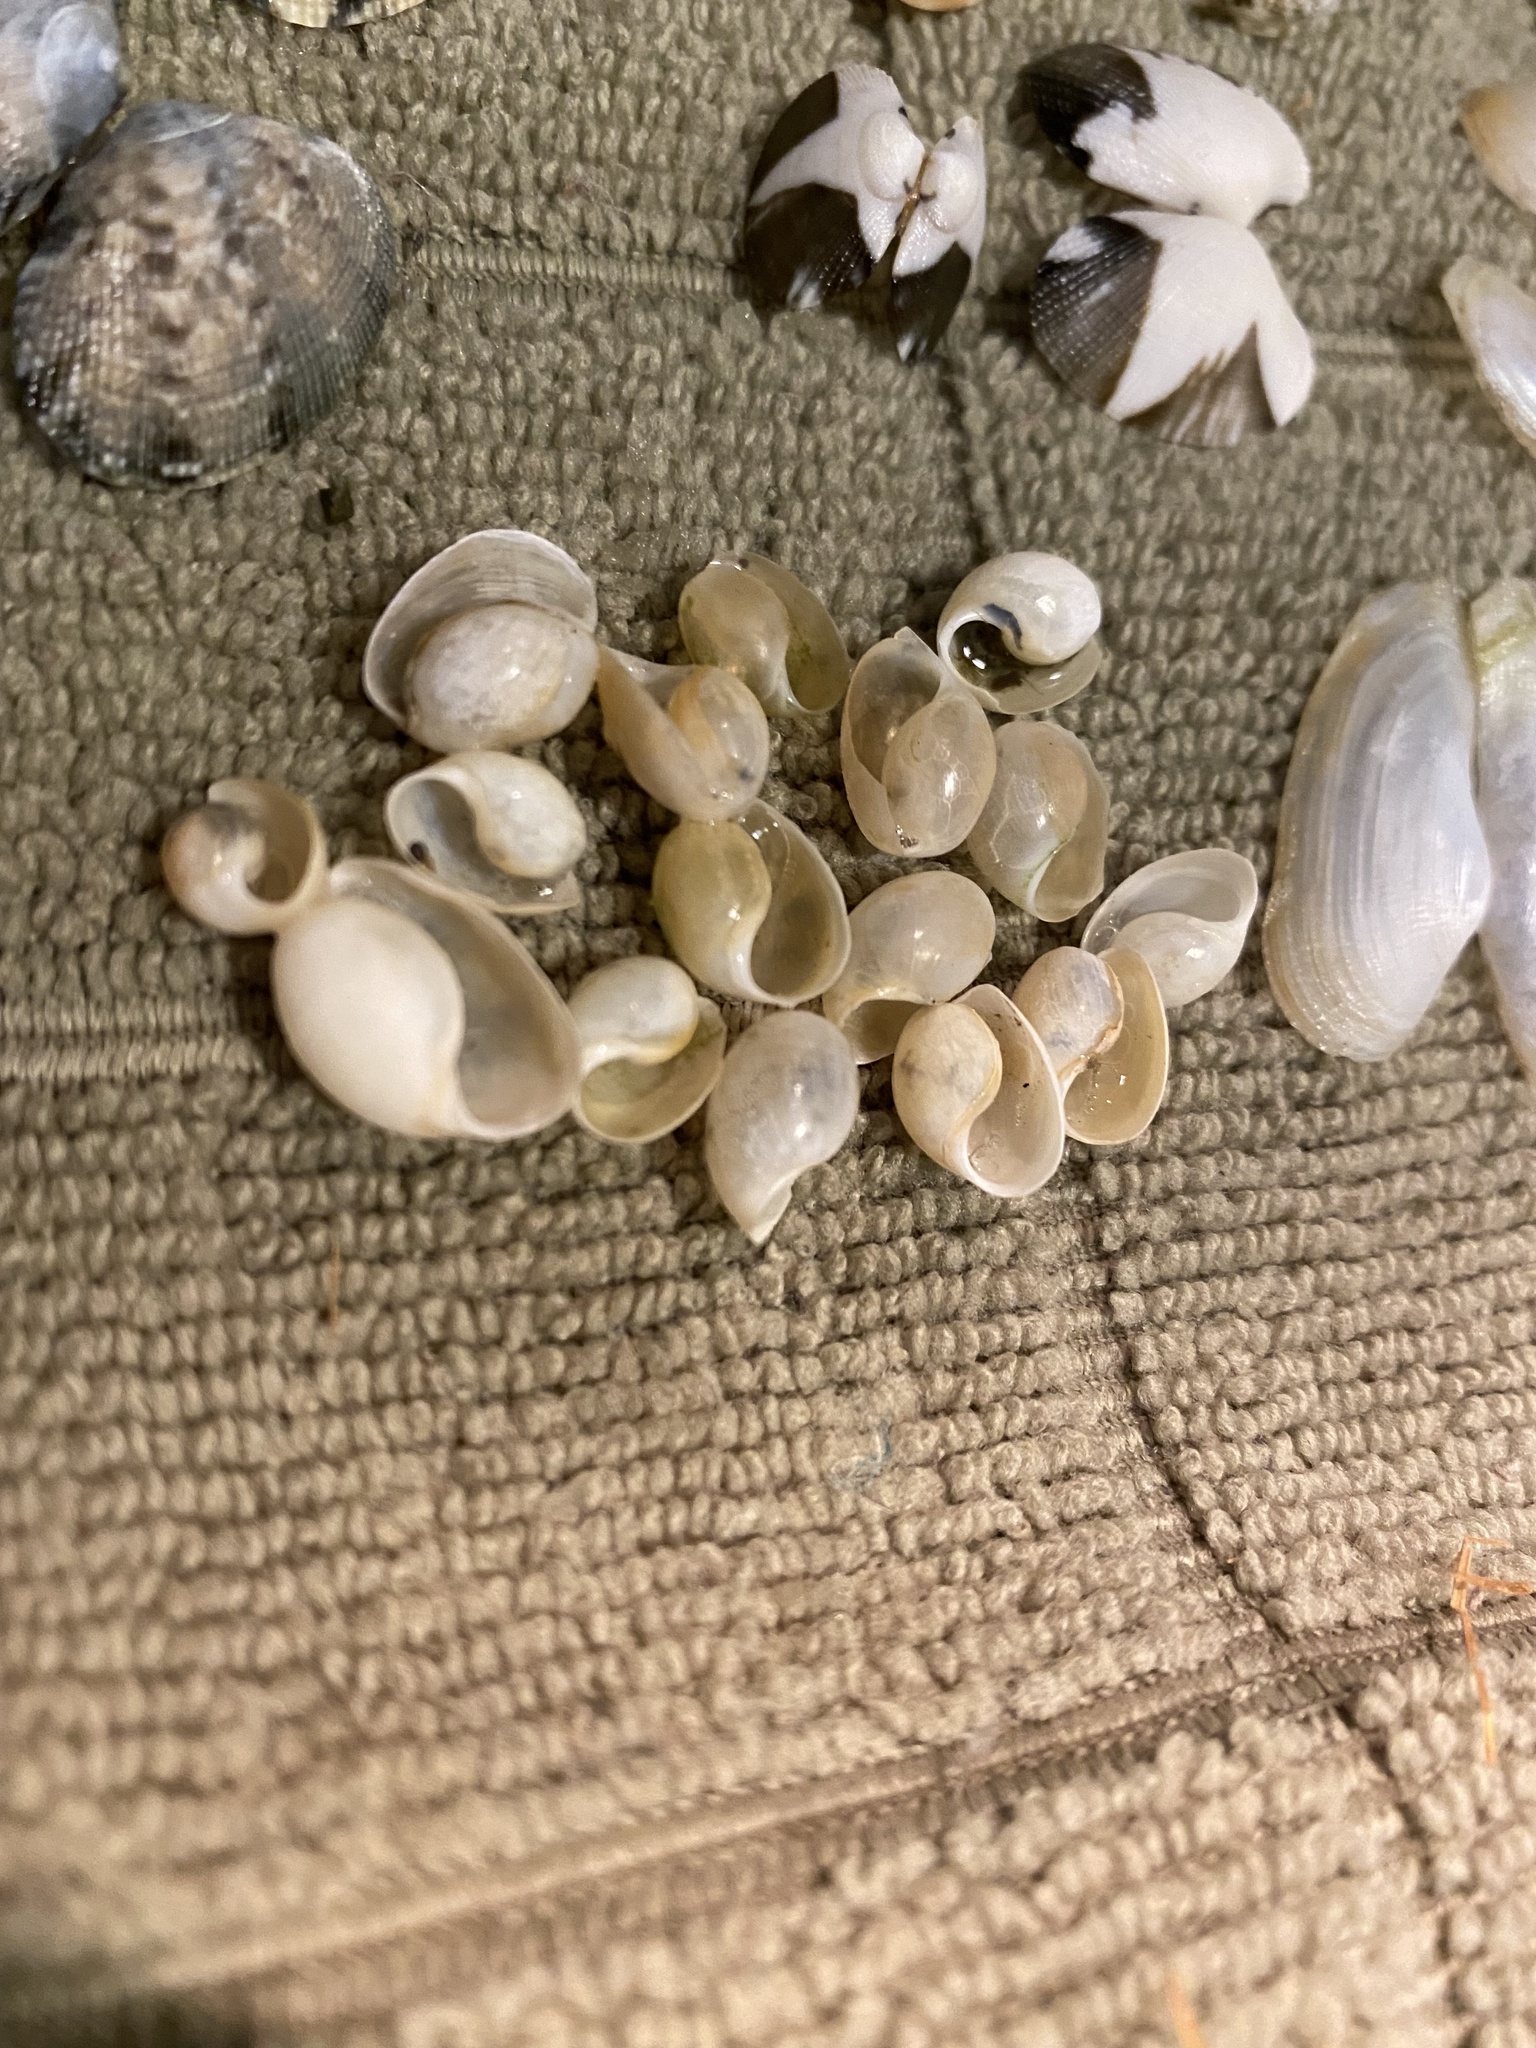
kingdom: Animalia
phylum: Mollusca
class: Gastropoda
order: Cephalaspidea
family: Haminoeidae
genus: Haloa
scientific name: Haloa japonica
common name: Japanese bubble snail
